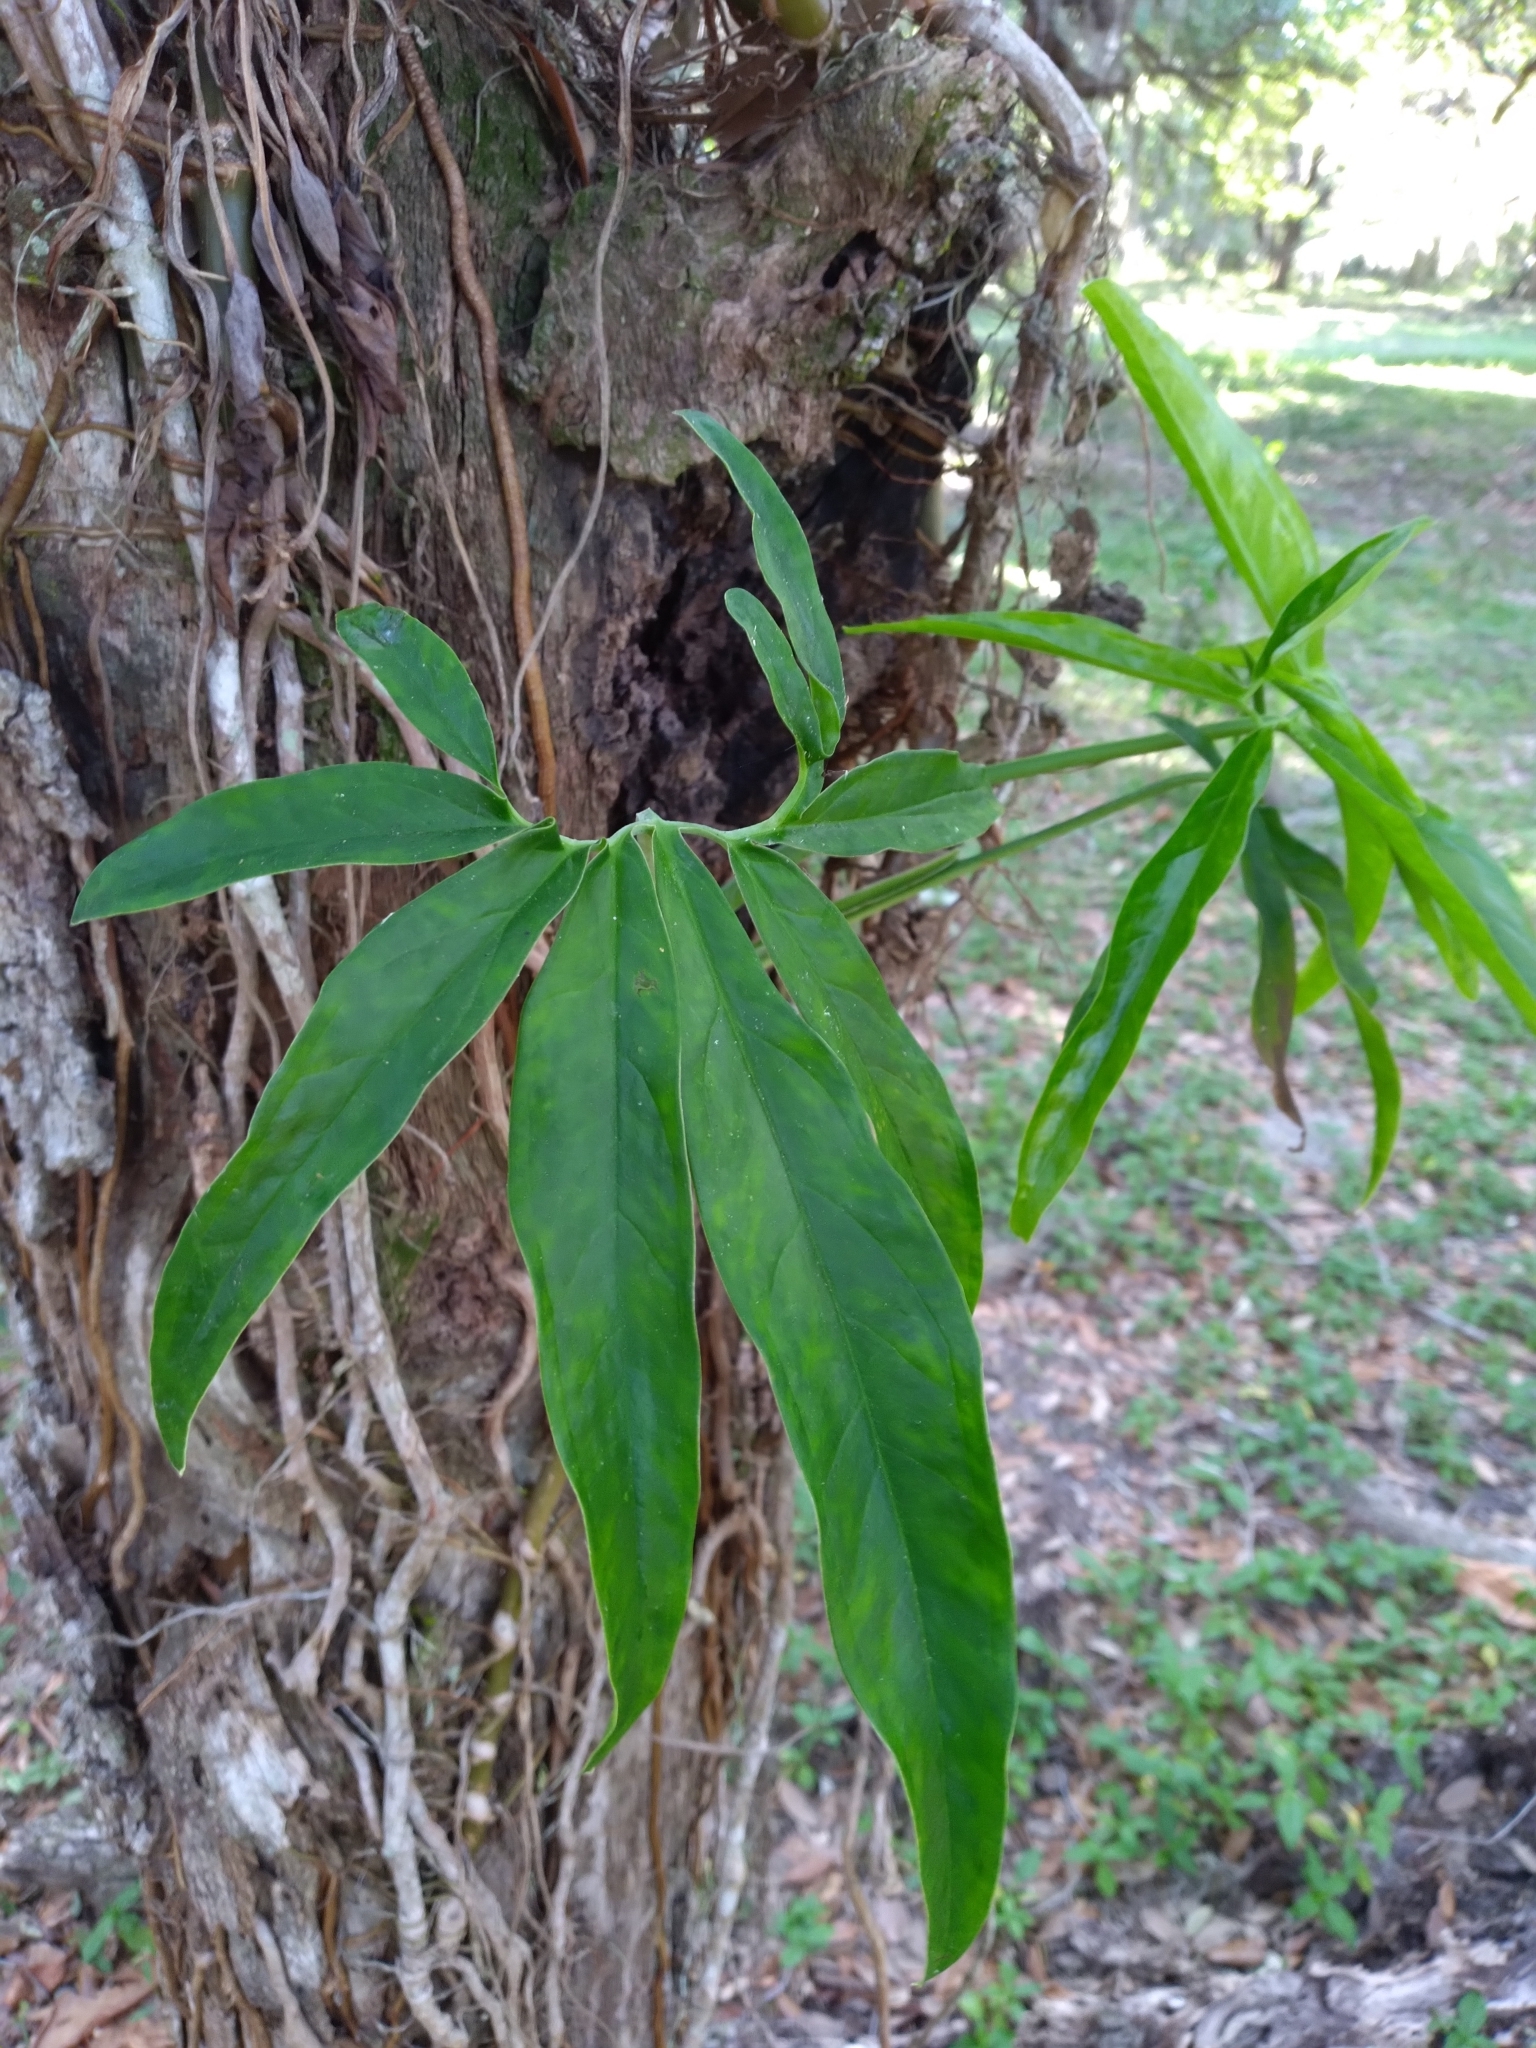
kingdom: Plantae
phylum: Tracheophyta
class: Liliopsida
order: Alismatales
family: Araceae
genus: Syngonium
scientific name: Syngonium podophyllum
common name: American evergreen
